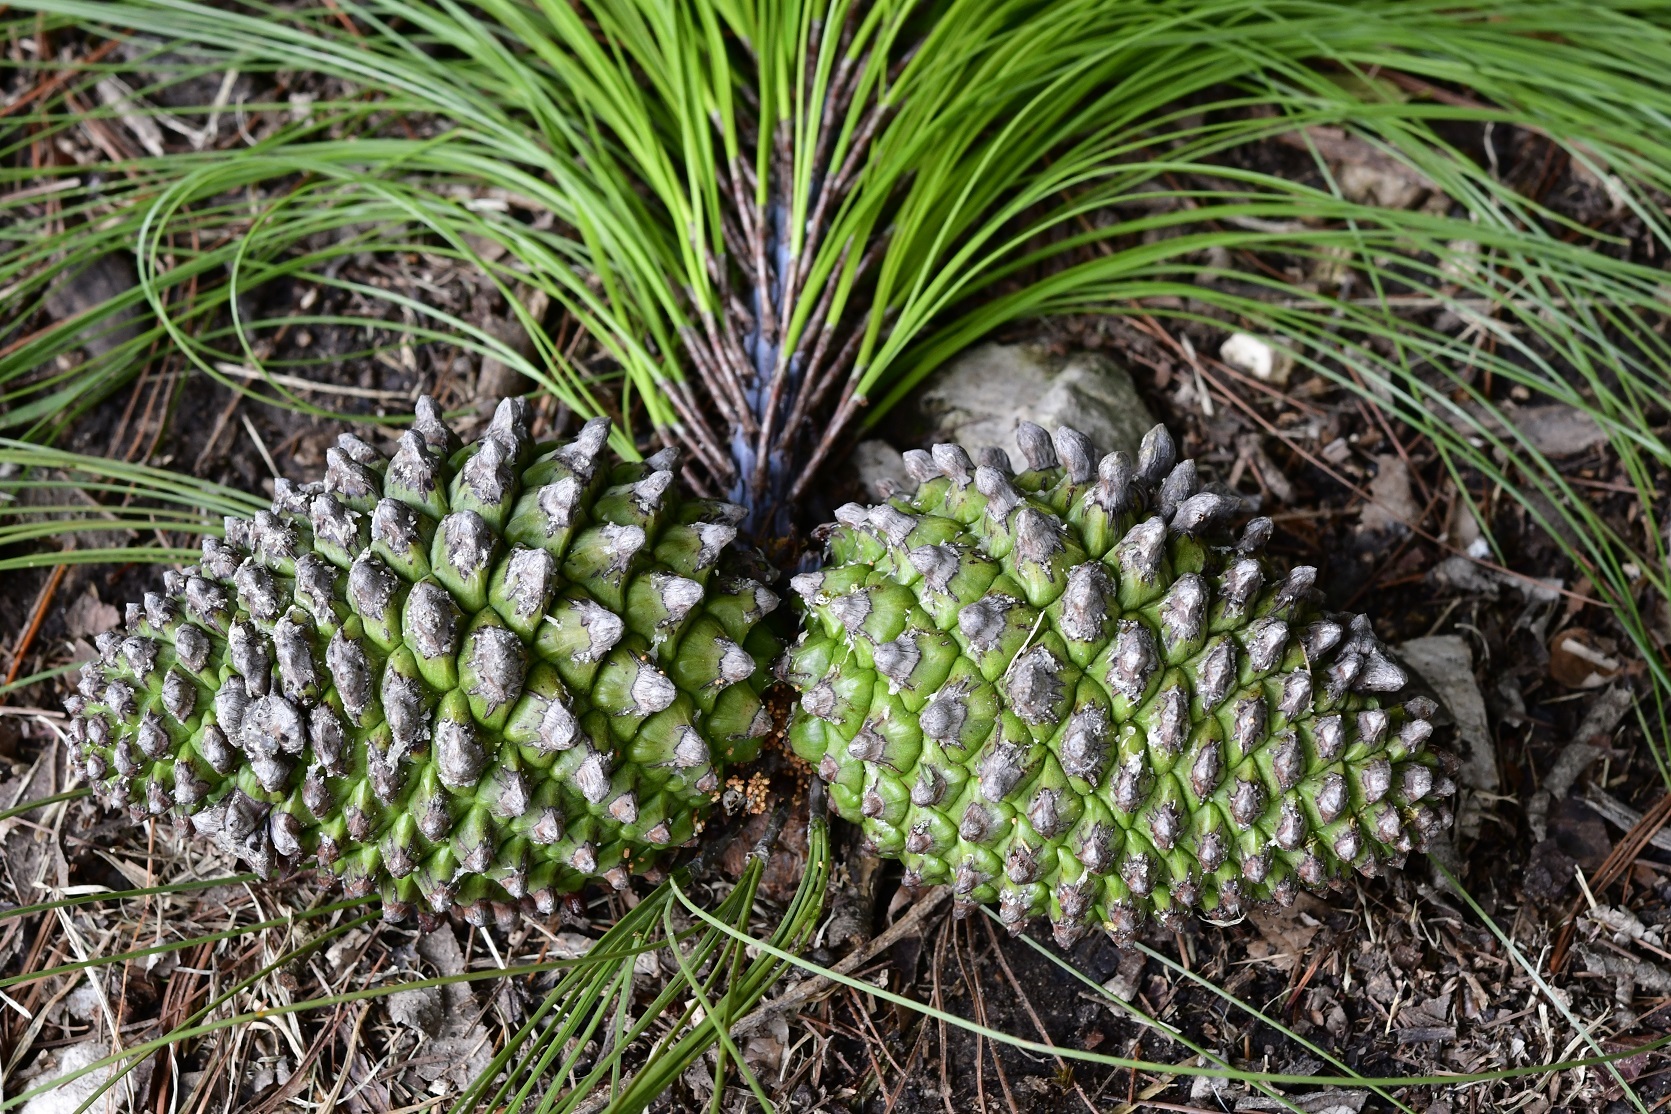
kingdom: Plantae
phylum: Tracheophyta
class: Pinopsida
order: Pinales
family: Pinaceae
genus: Pinus
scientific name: Pinus pseudostrobus
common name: False weymouth pine
